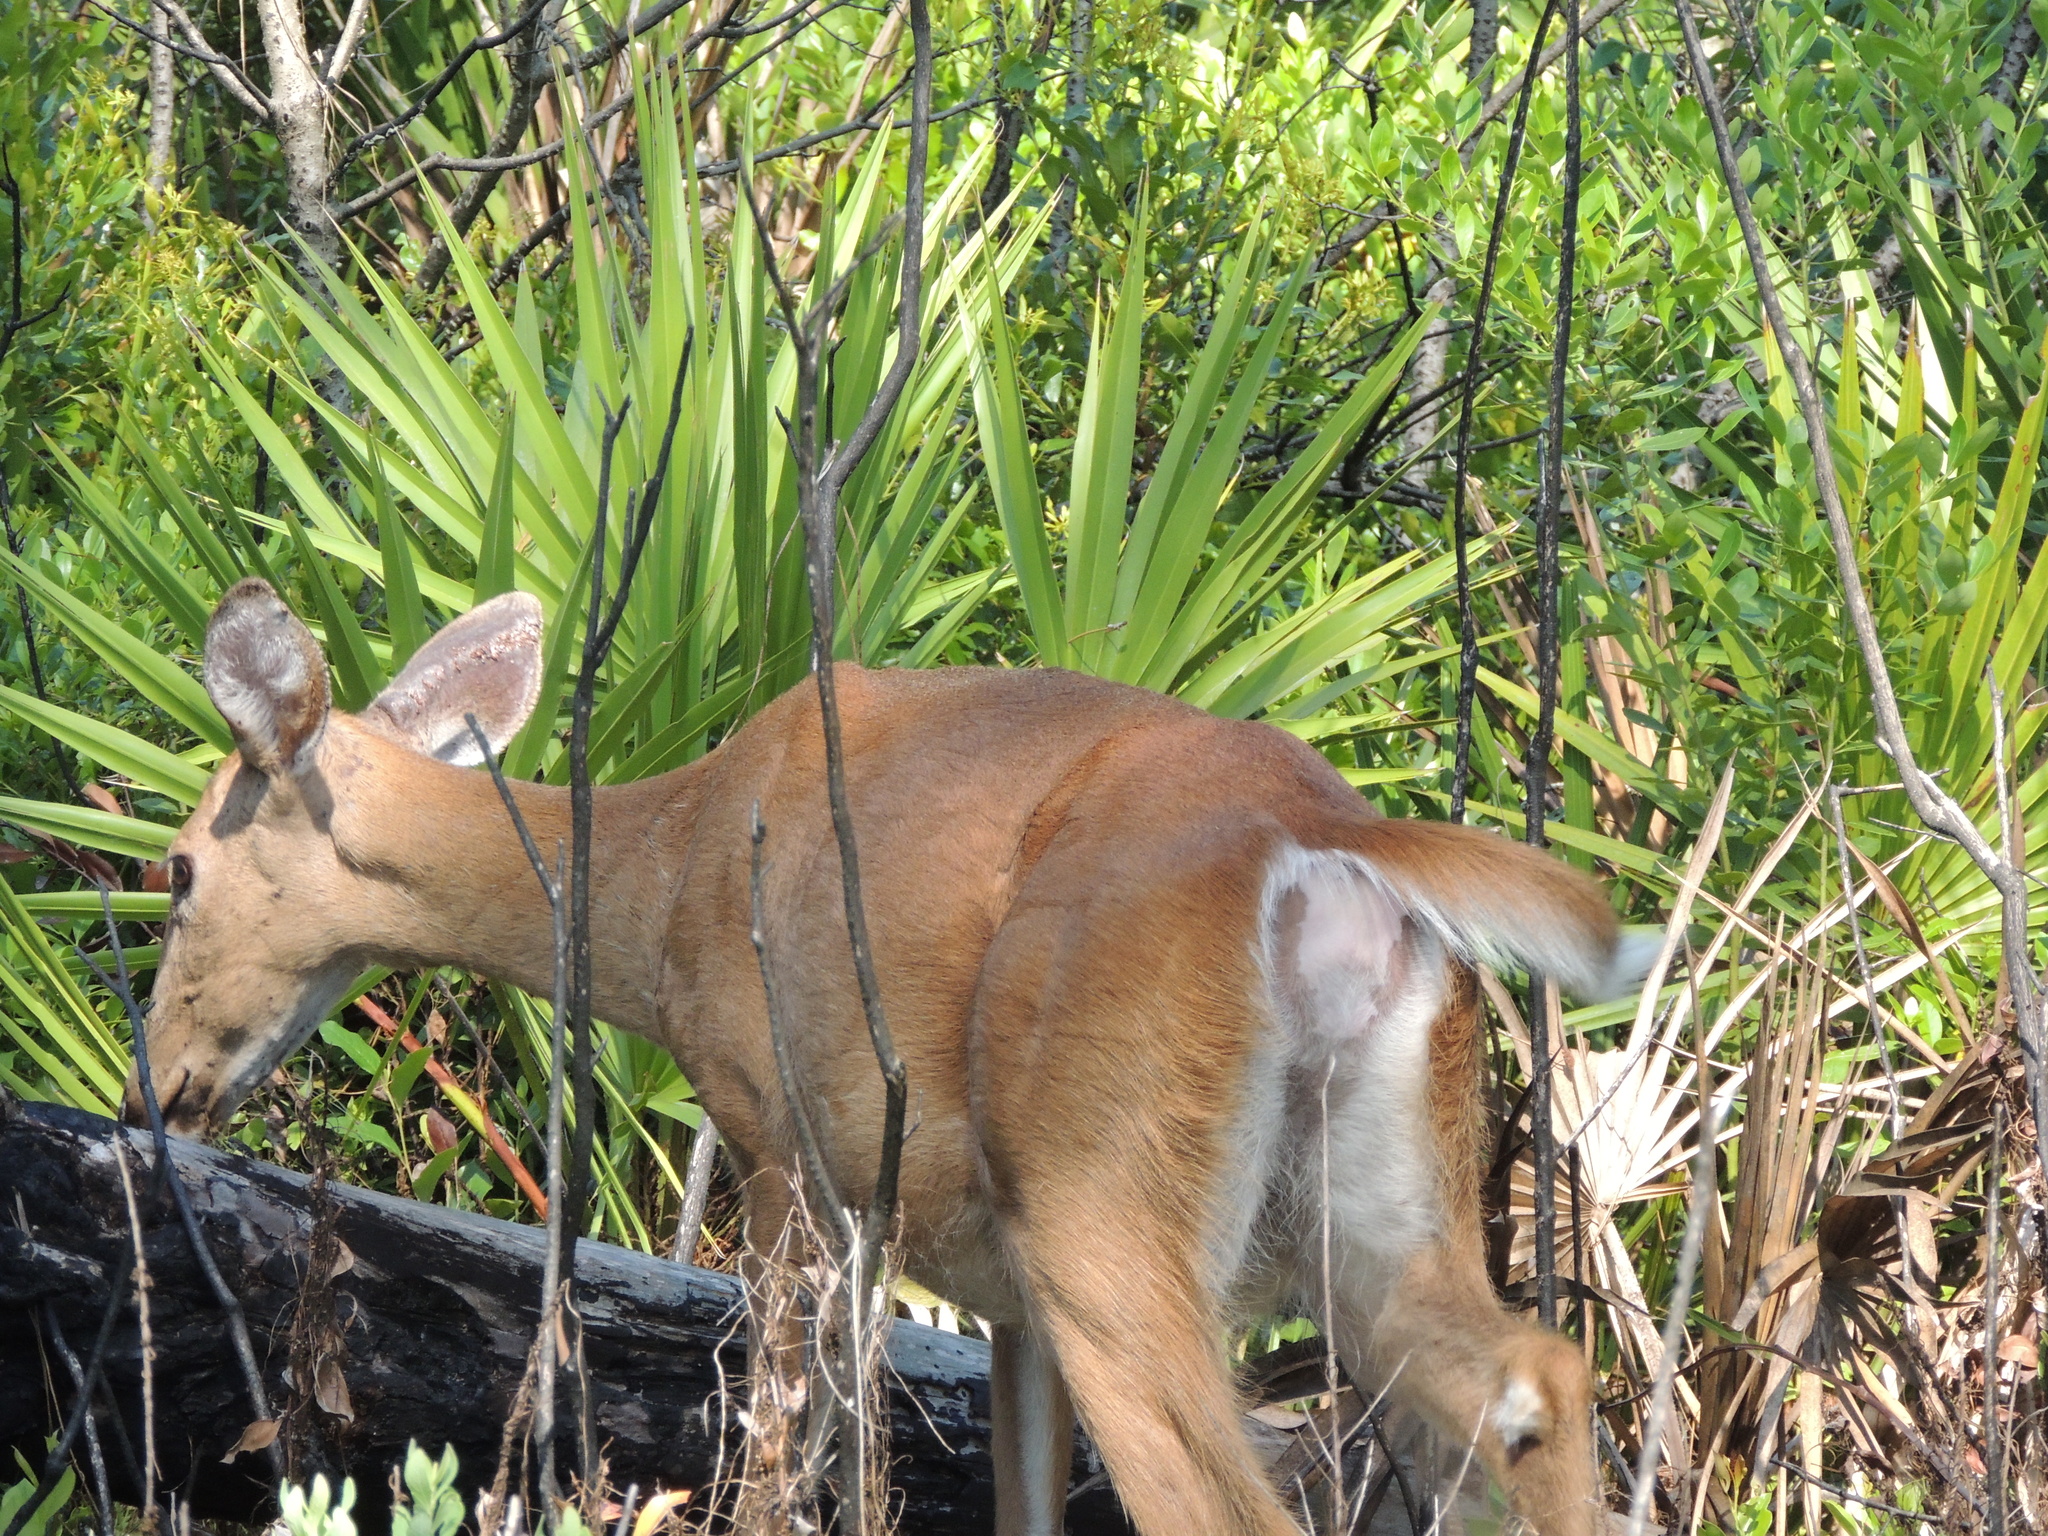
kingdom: Animalia
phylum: Chordata
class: Mammalia
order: Artiodactyla
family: Cervidae
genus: Odocoileus
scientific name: Odocoileus virginianus
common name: White-tailed deer
